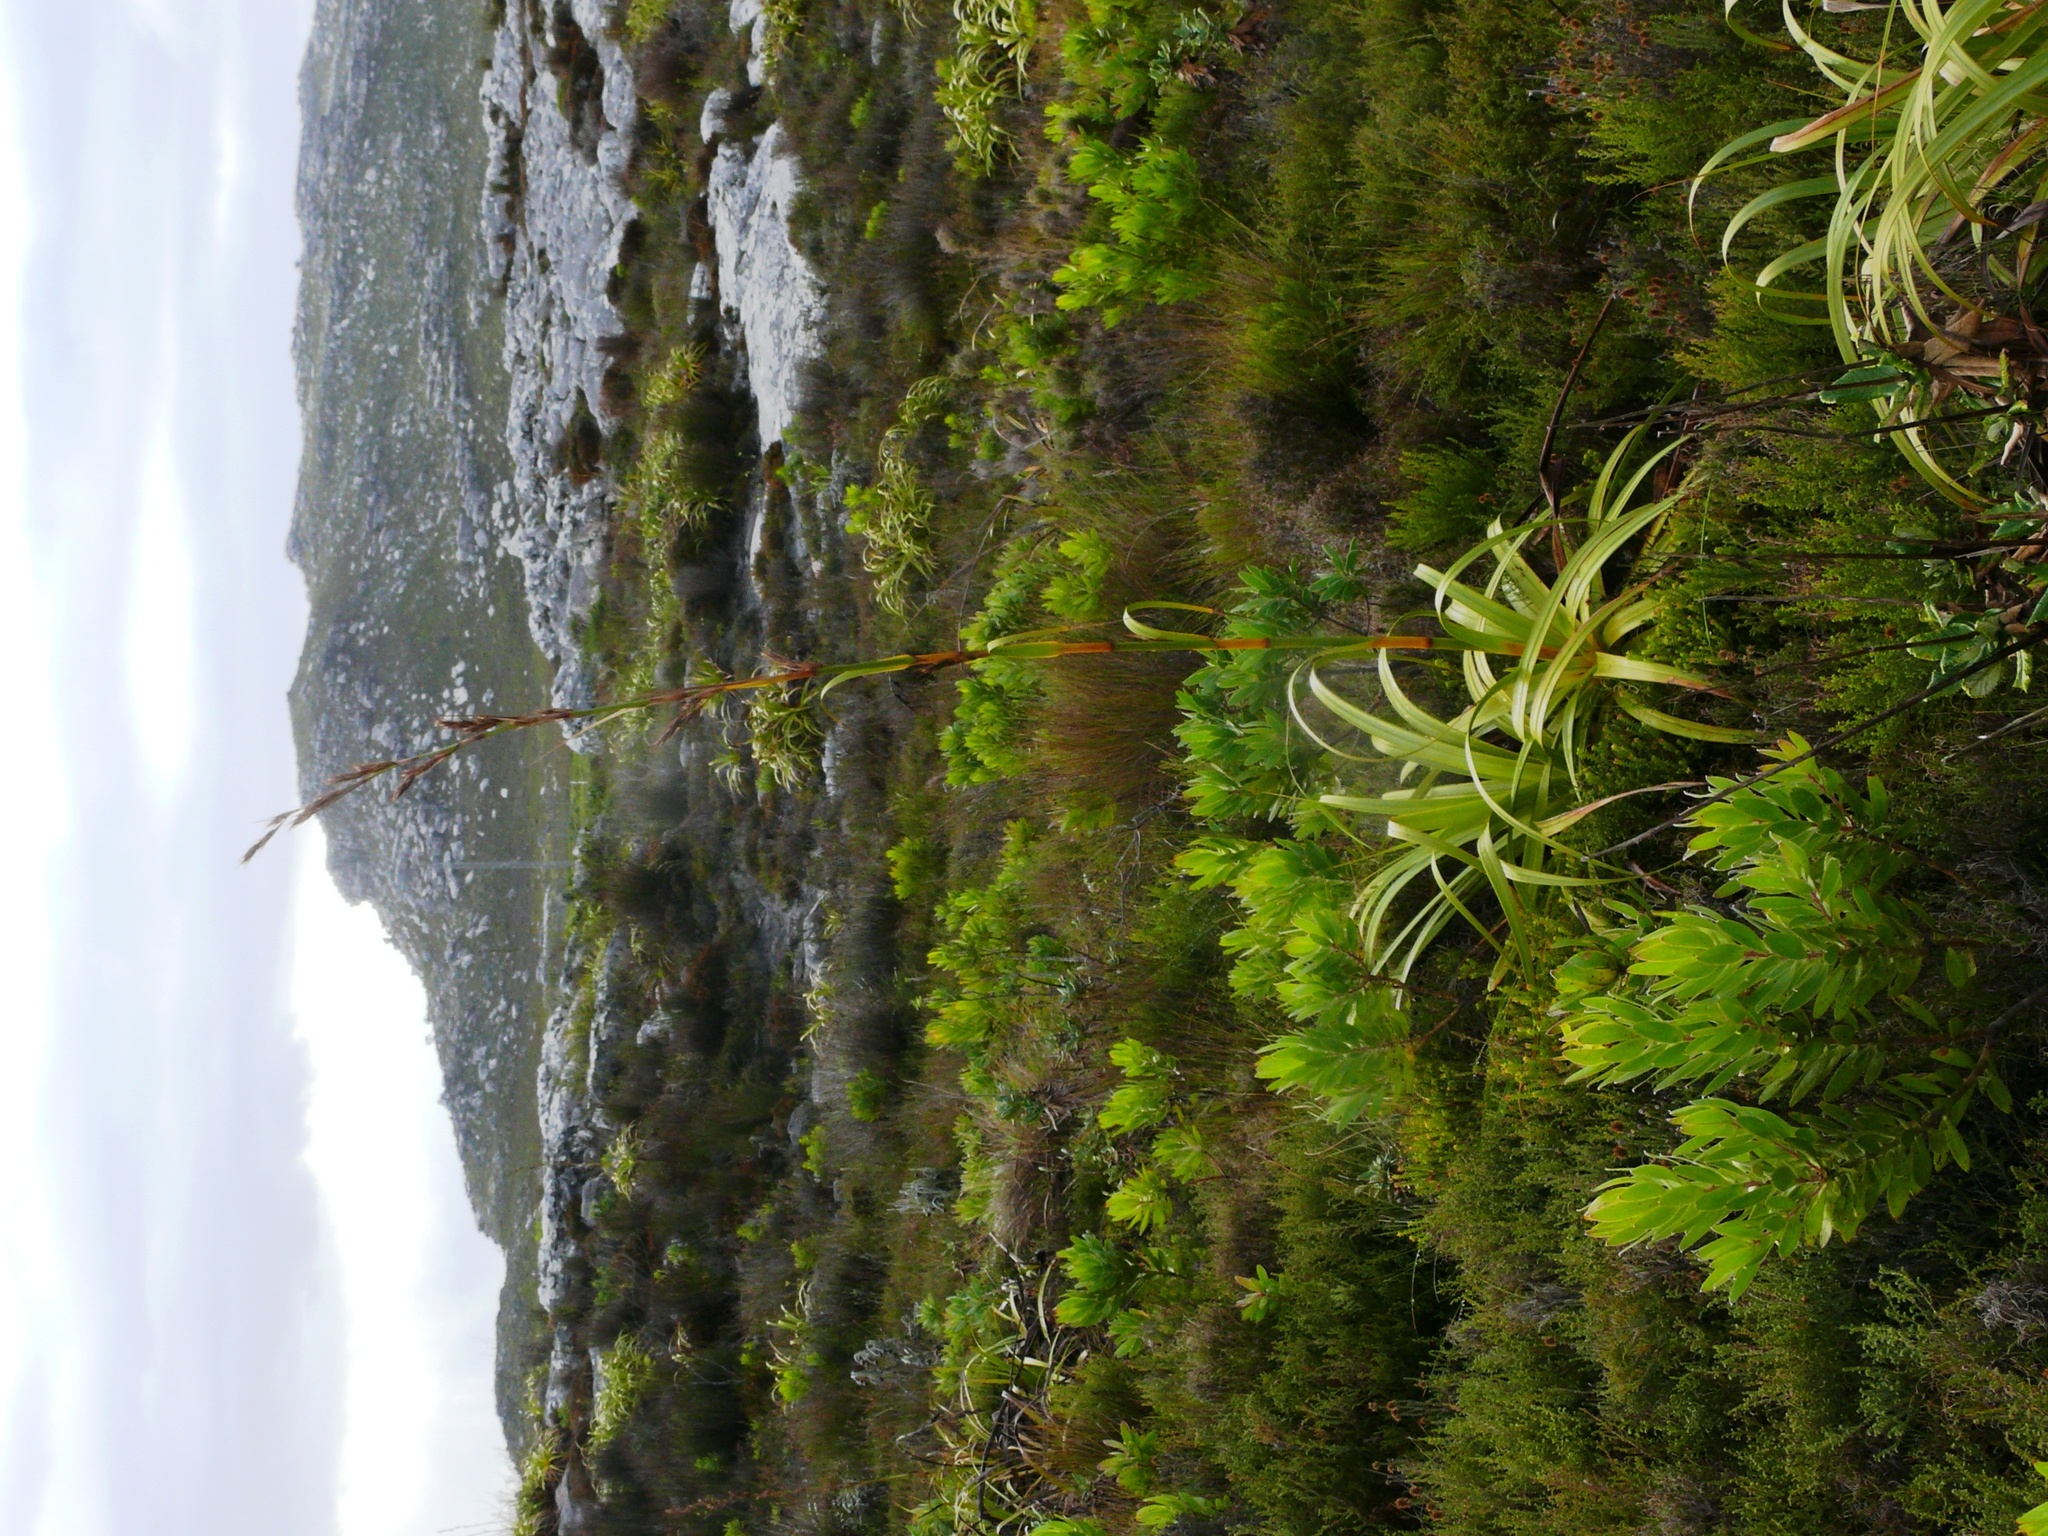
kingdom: Plantae
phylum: Tracheophyta
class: Liliopsida
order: Poales
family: Cyperaceae
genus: Tetraria
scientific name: Tetraria thermalis
